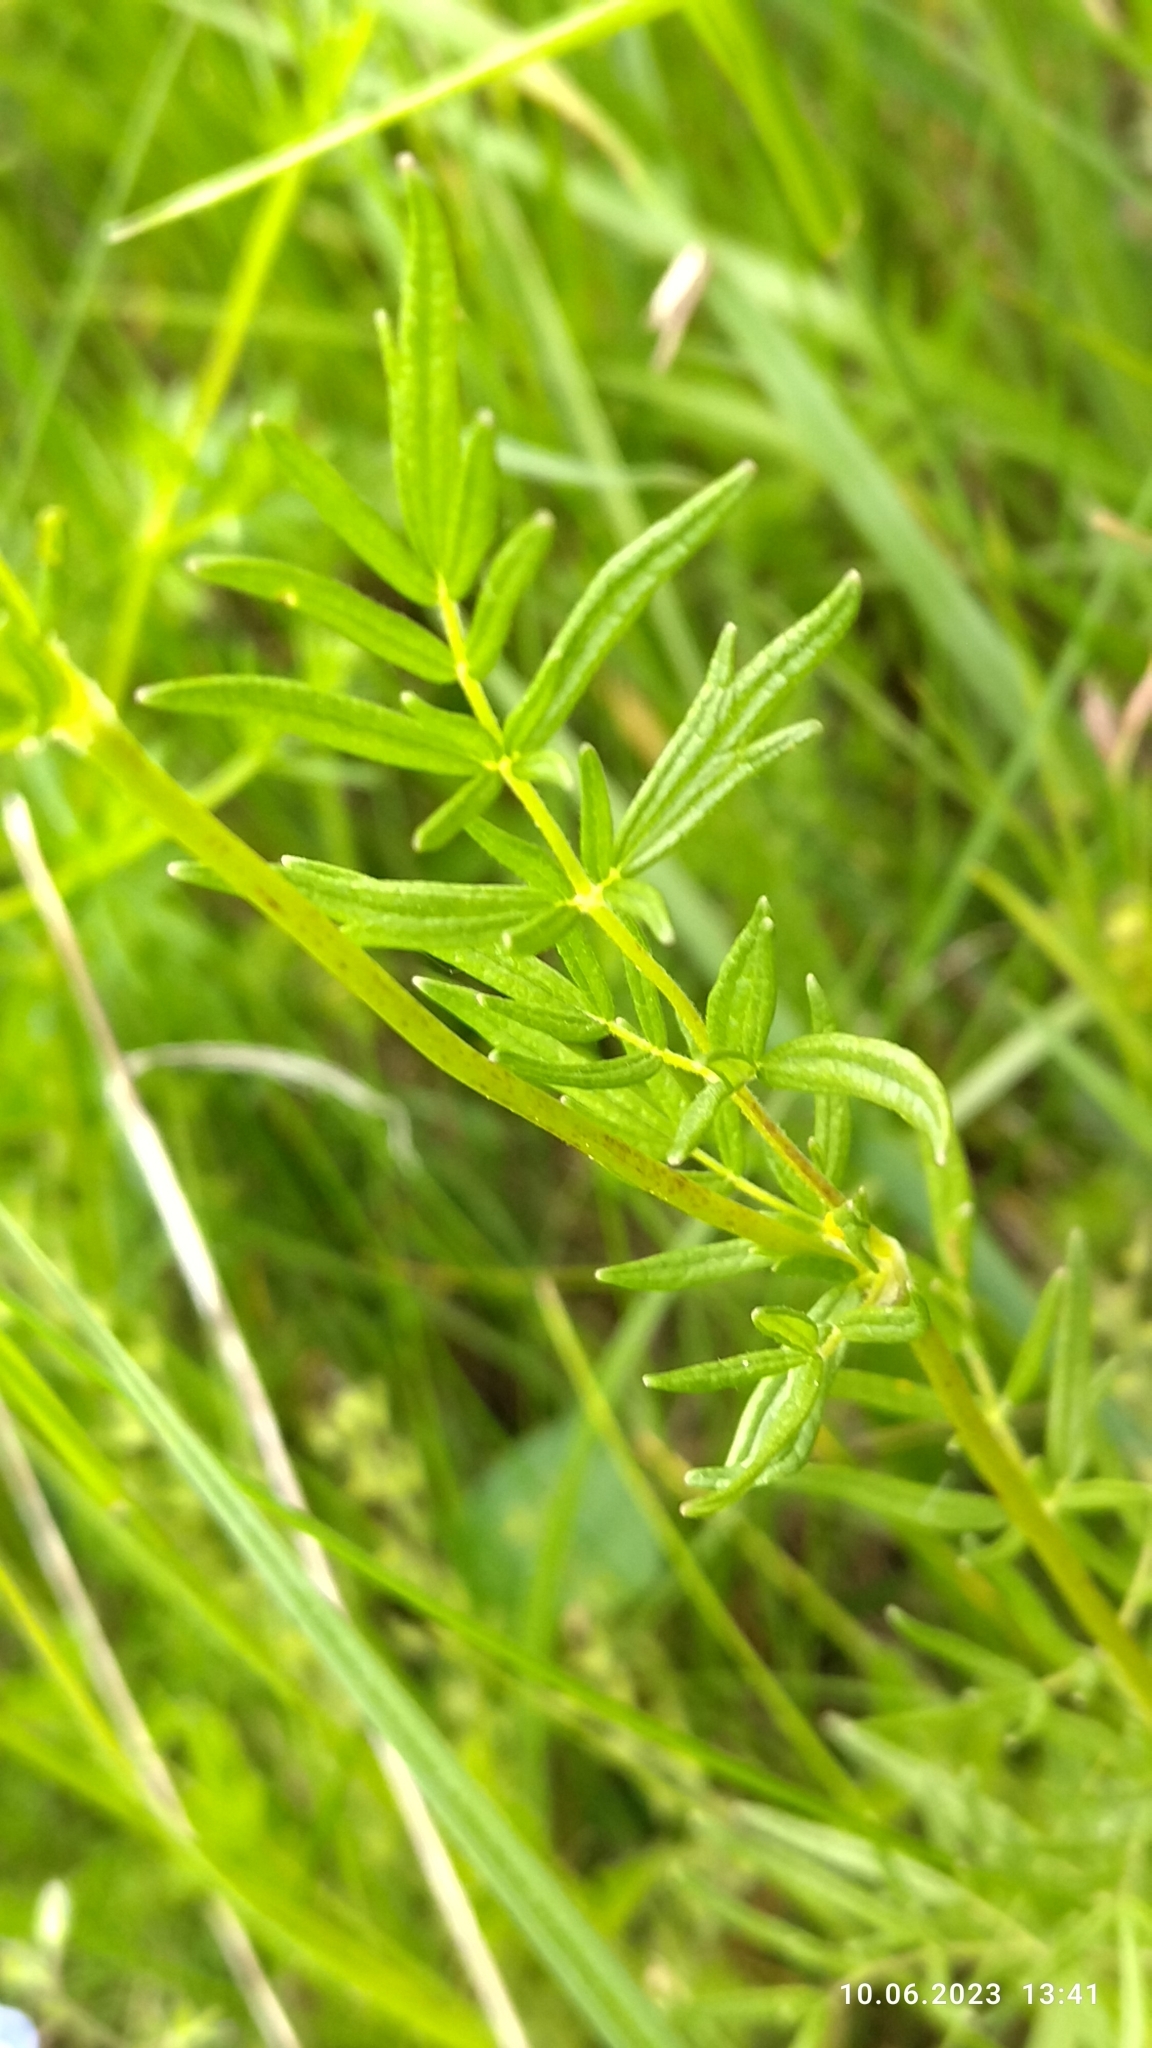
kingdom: Plantae
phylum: Tracheophyta
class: Magnoliopsida
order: Ranunculales
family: Ranunculaceae
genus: Thalictrum
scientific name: Thalictrum lucidum
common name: Shining meadow-rue
